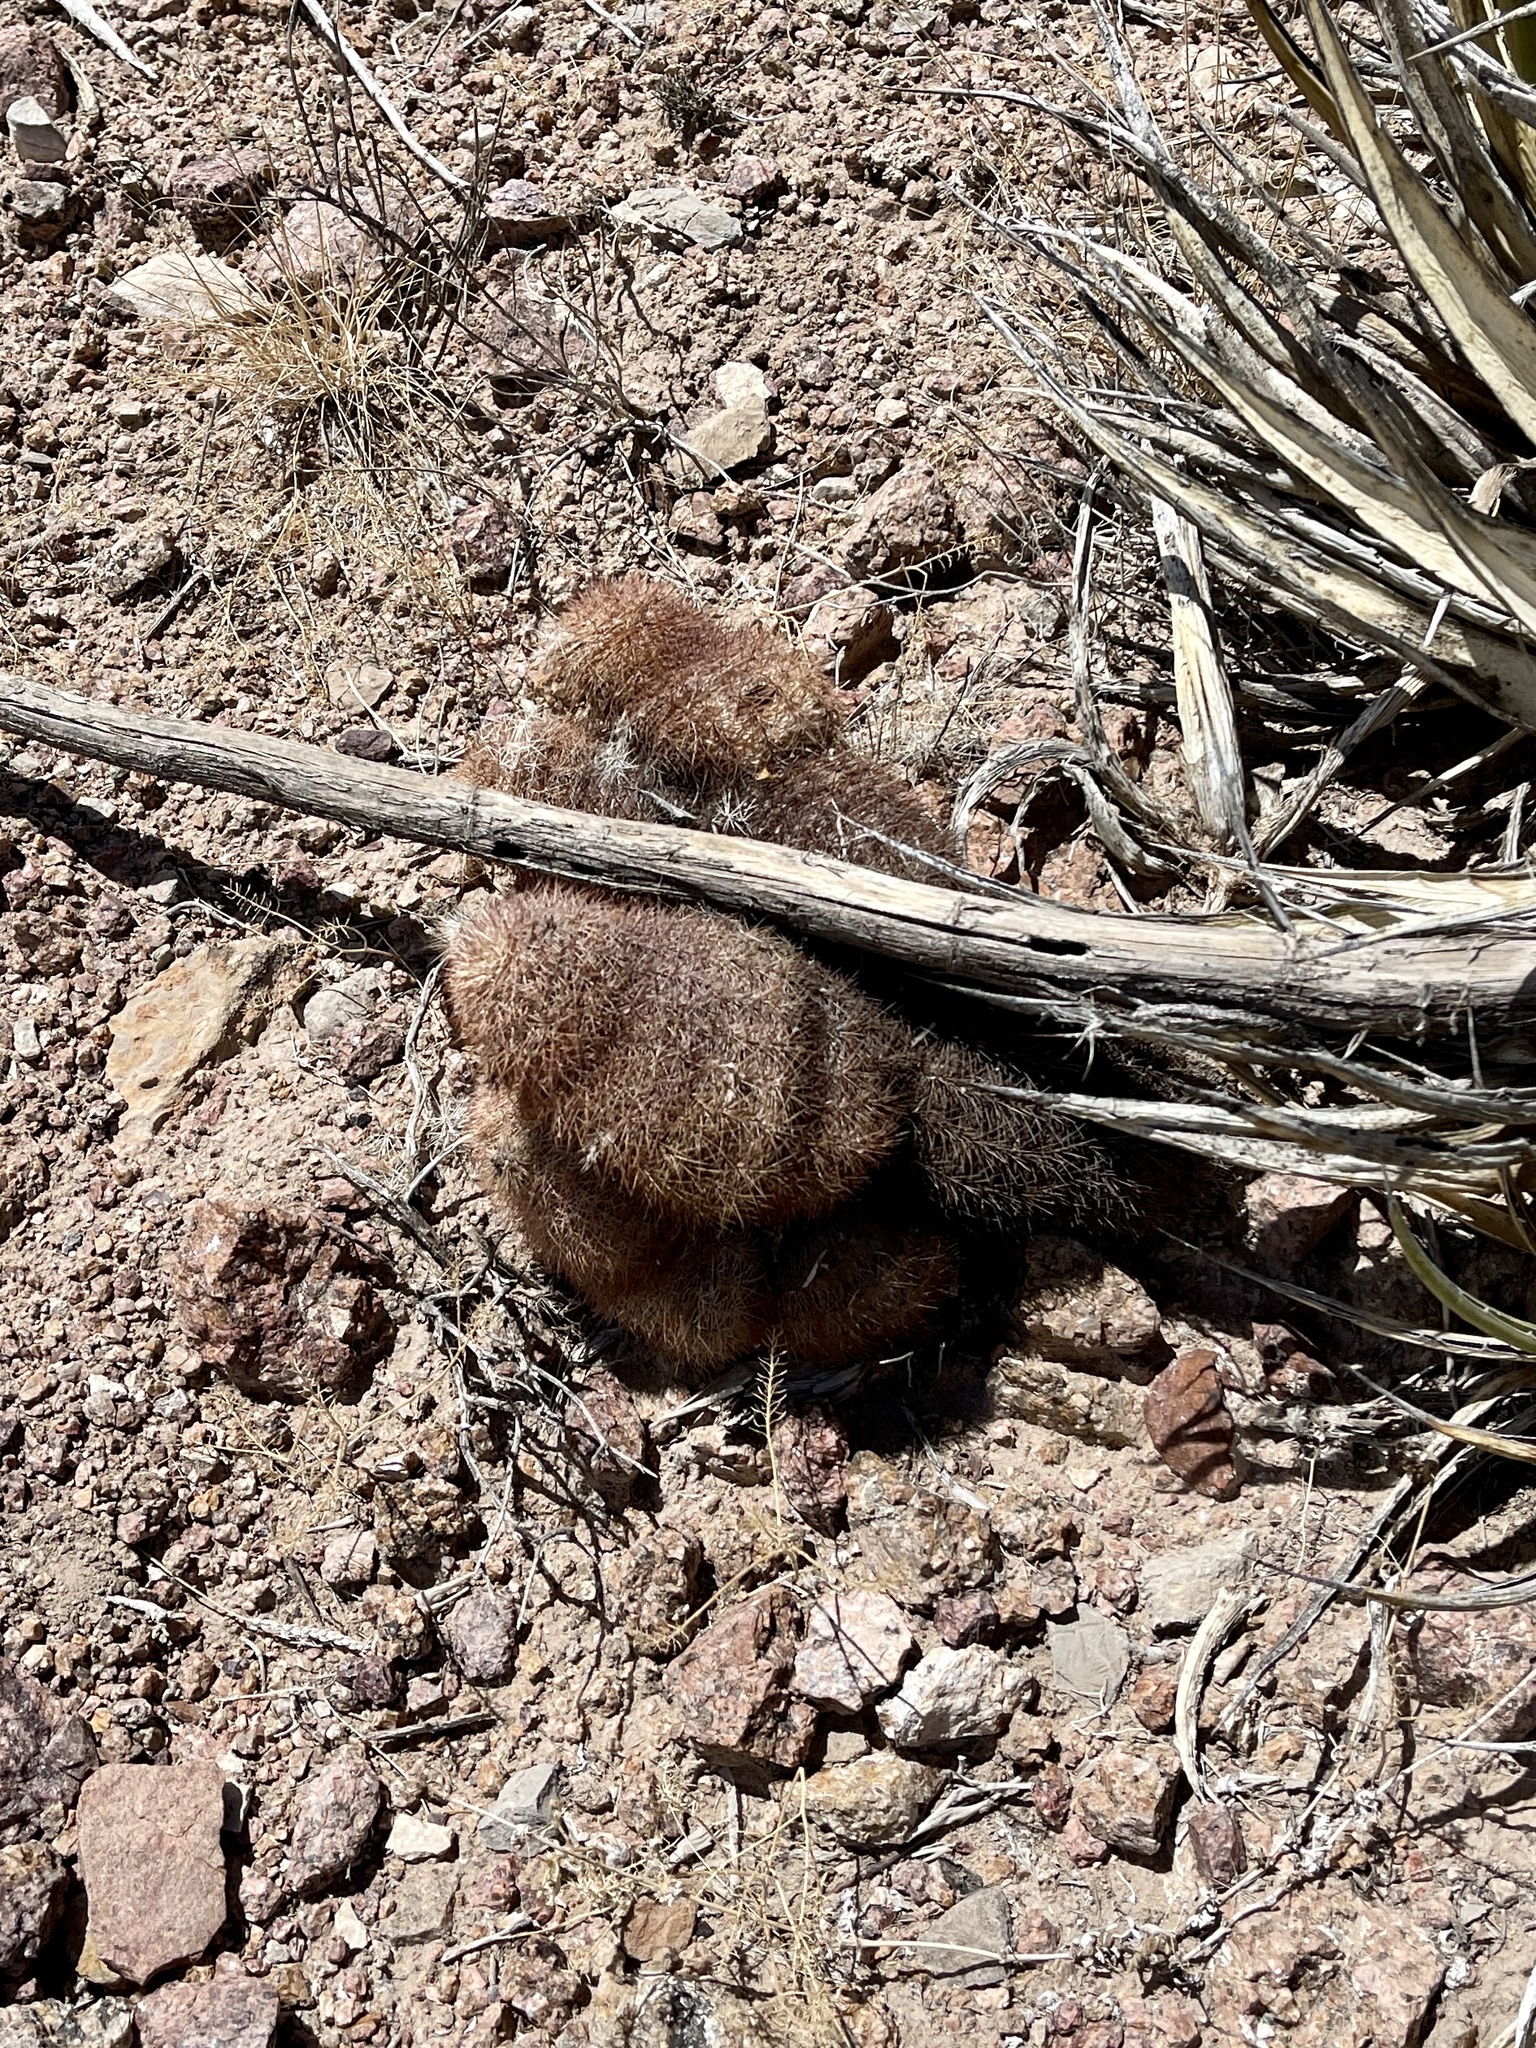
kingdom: Plantae
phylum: Tracheophyta
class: Magnoliopsida
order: Caryophyllales
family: Cactaceae
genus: Echinocereus
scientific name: Echinocereus dasyacanthus
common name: Spiny hedgehog cactus
